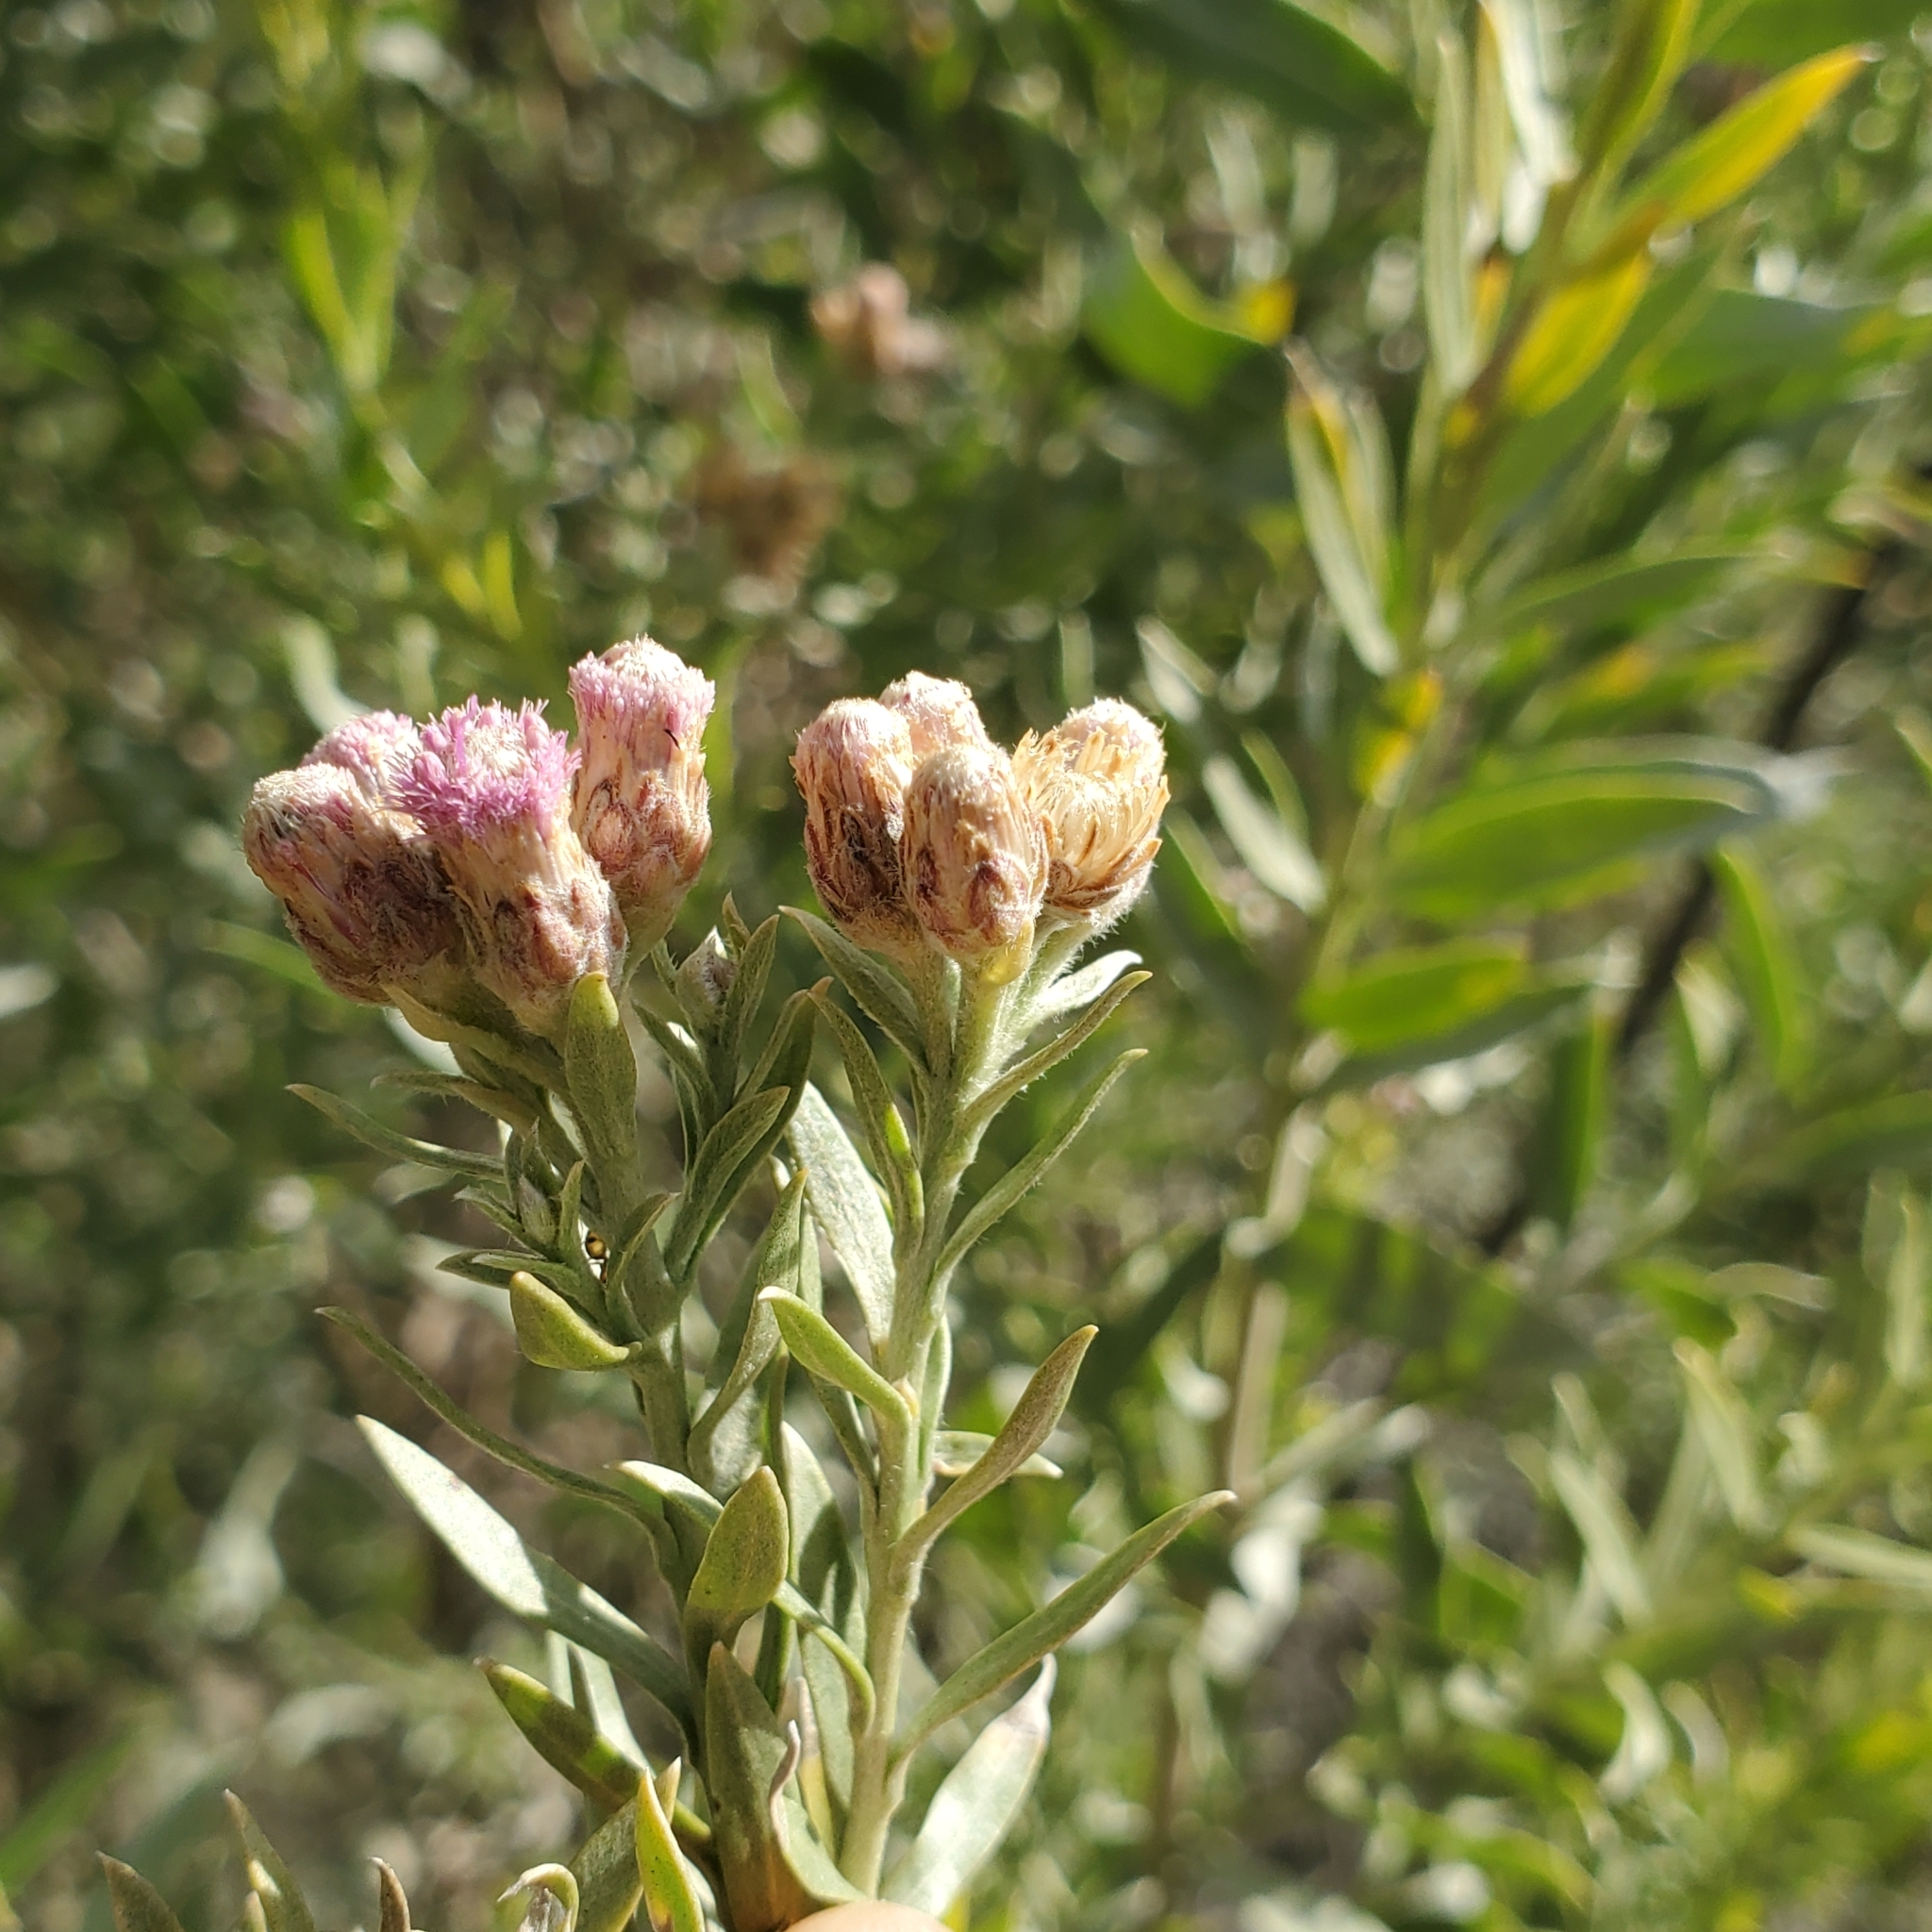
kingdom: Plantae
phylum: Tracheophyta
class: Magnoliopsida
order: Asterales
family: Asteraceae
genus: Pluchea
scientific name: Pluchea sericea
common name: Arrow-weed
